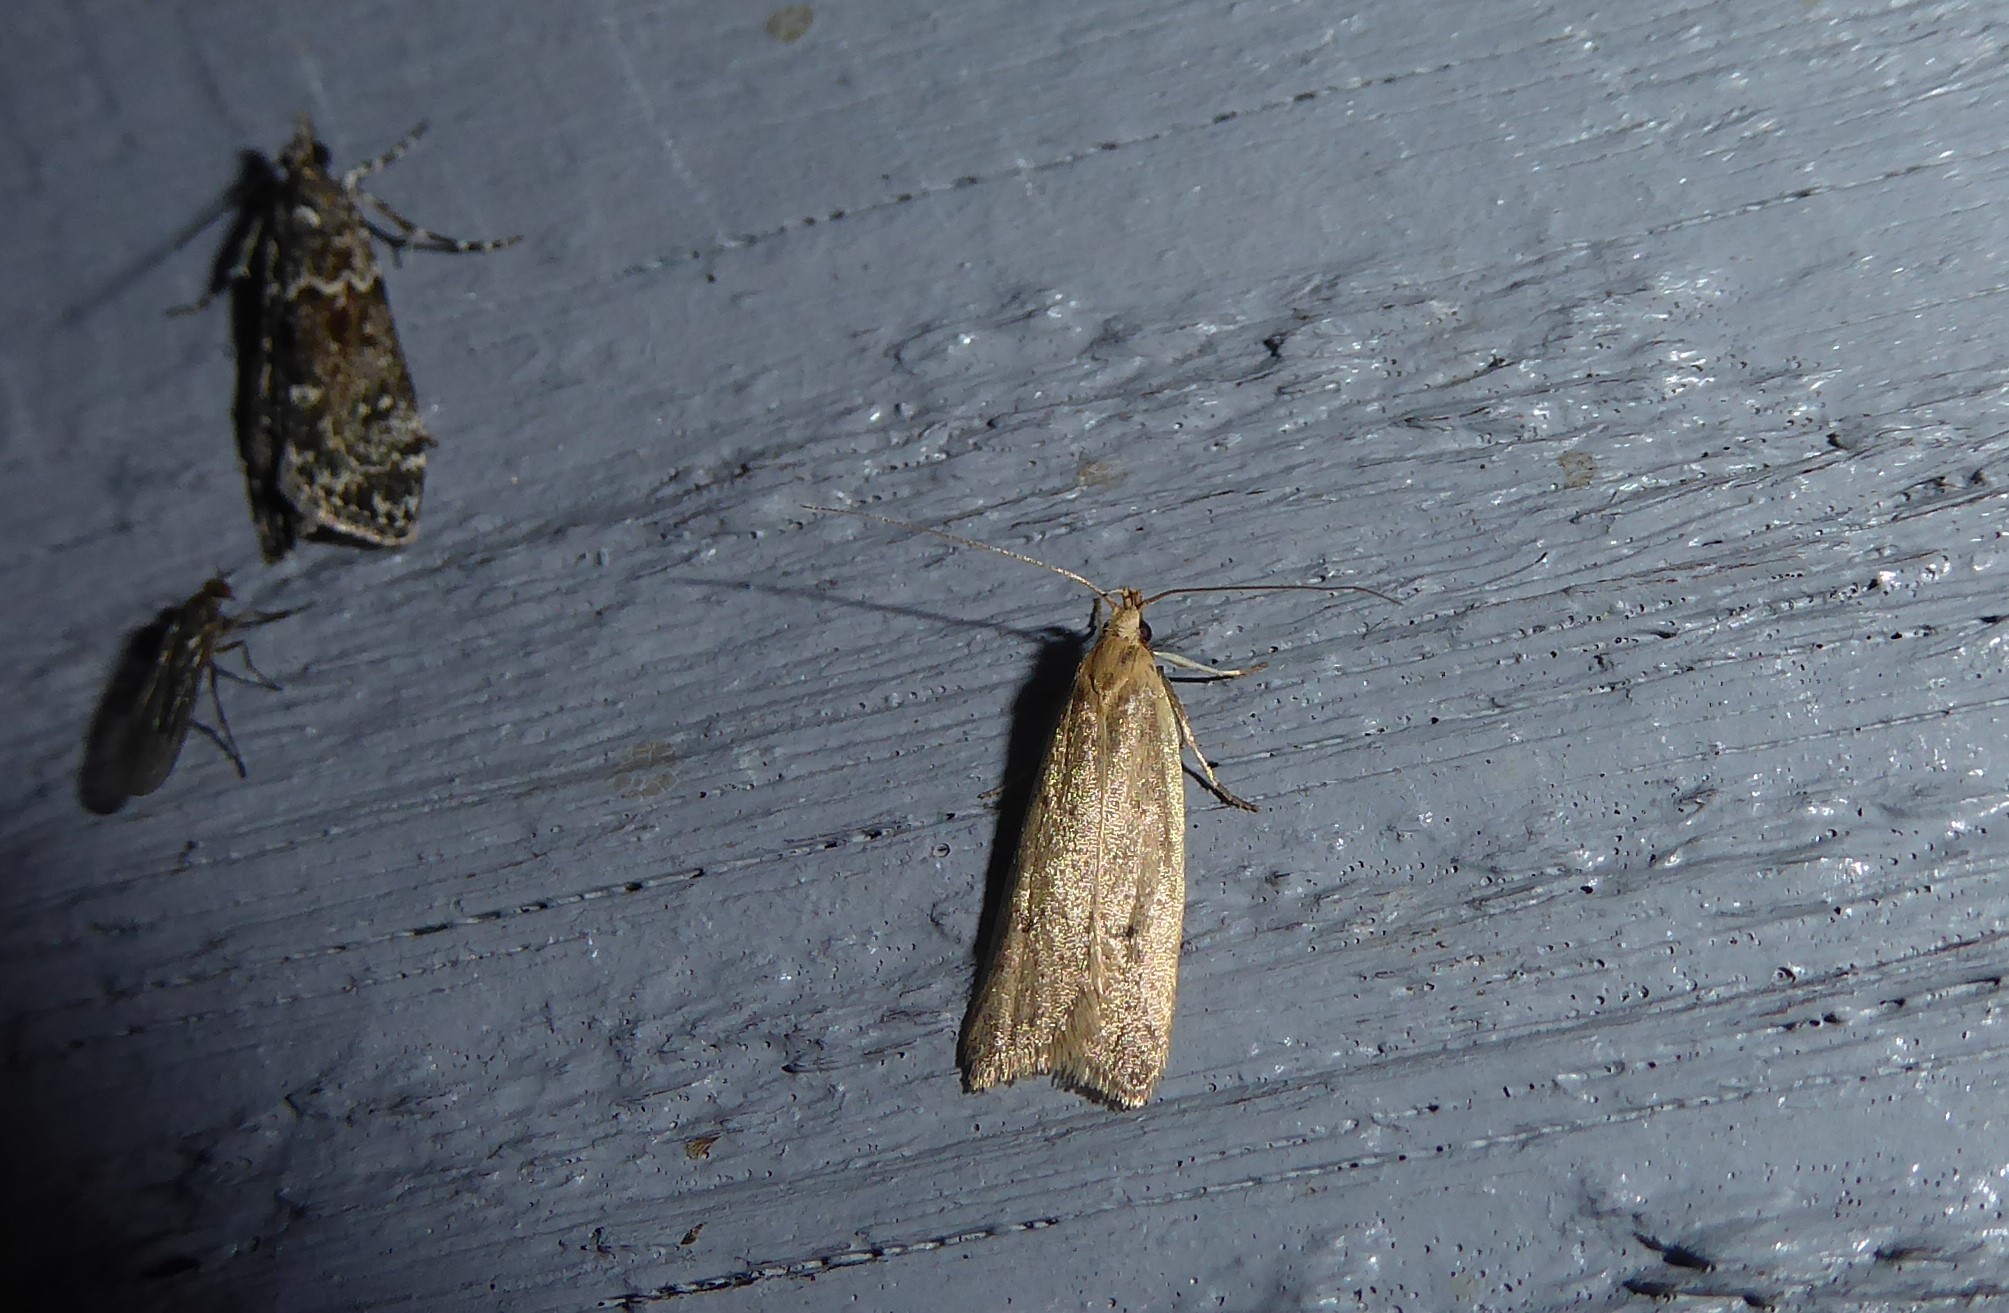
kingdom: Animalia
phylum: Arthropoda
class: Insecta
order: Lepidoptera
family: Oecophoridae
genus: Gymnobathra
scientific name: Gymnobathra sarcoxantha
